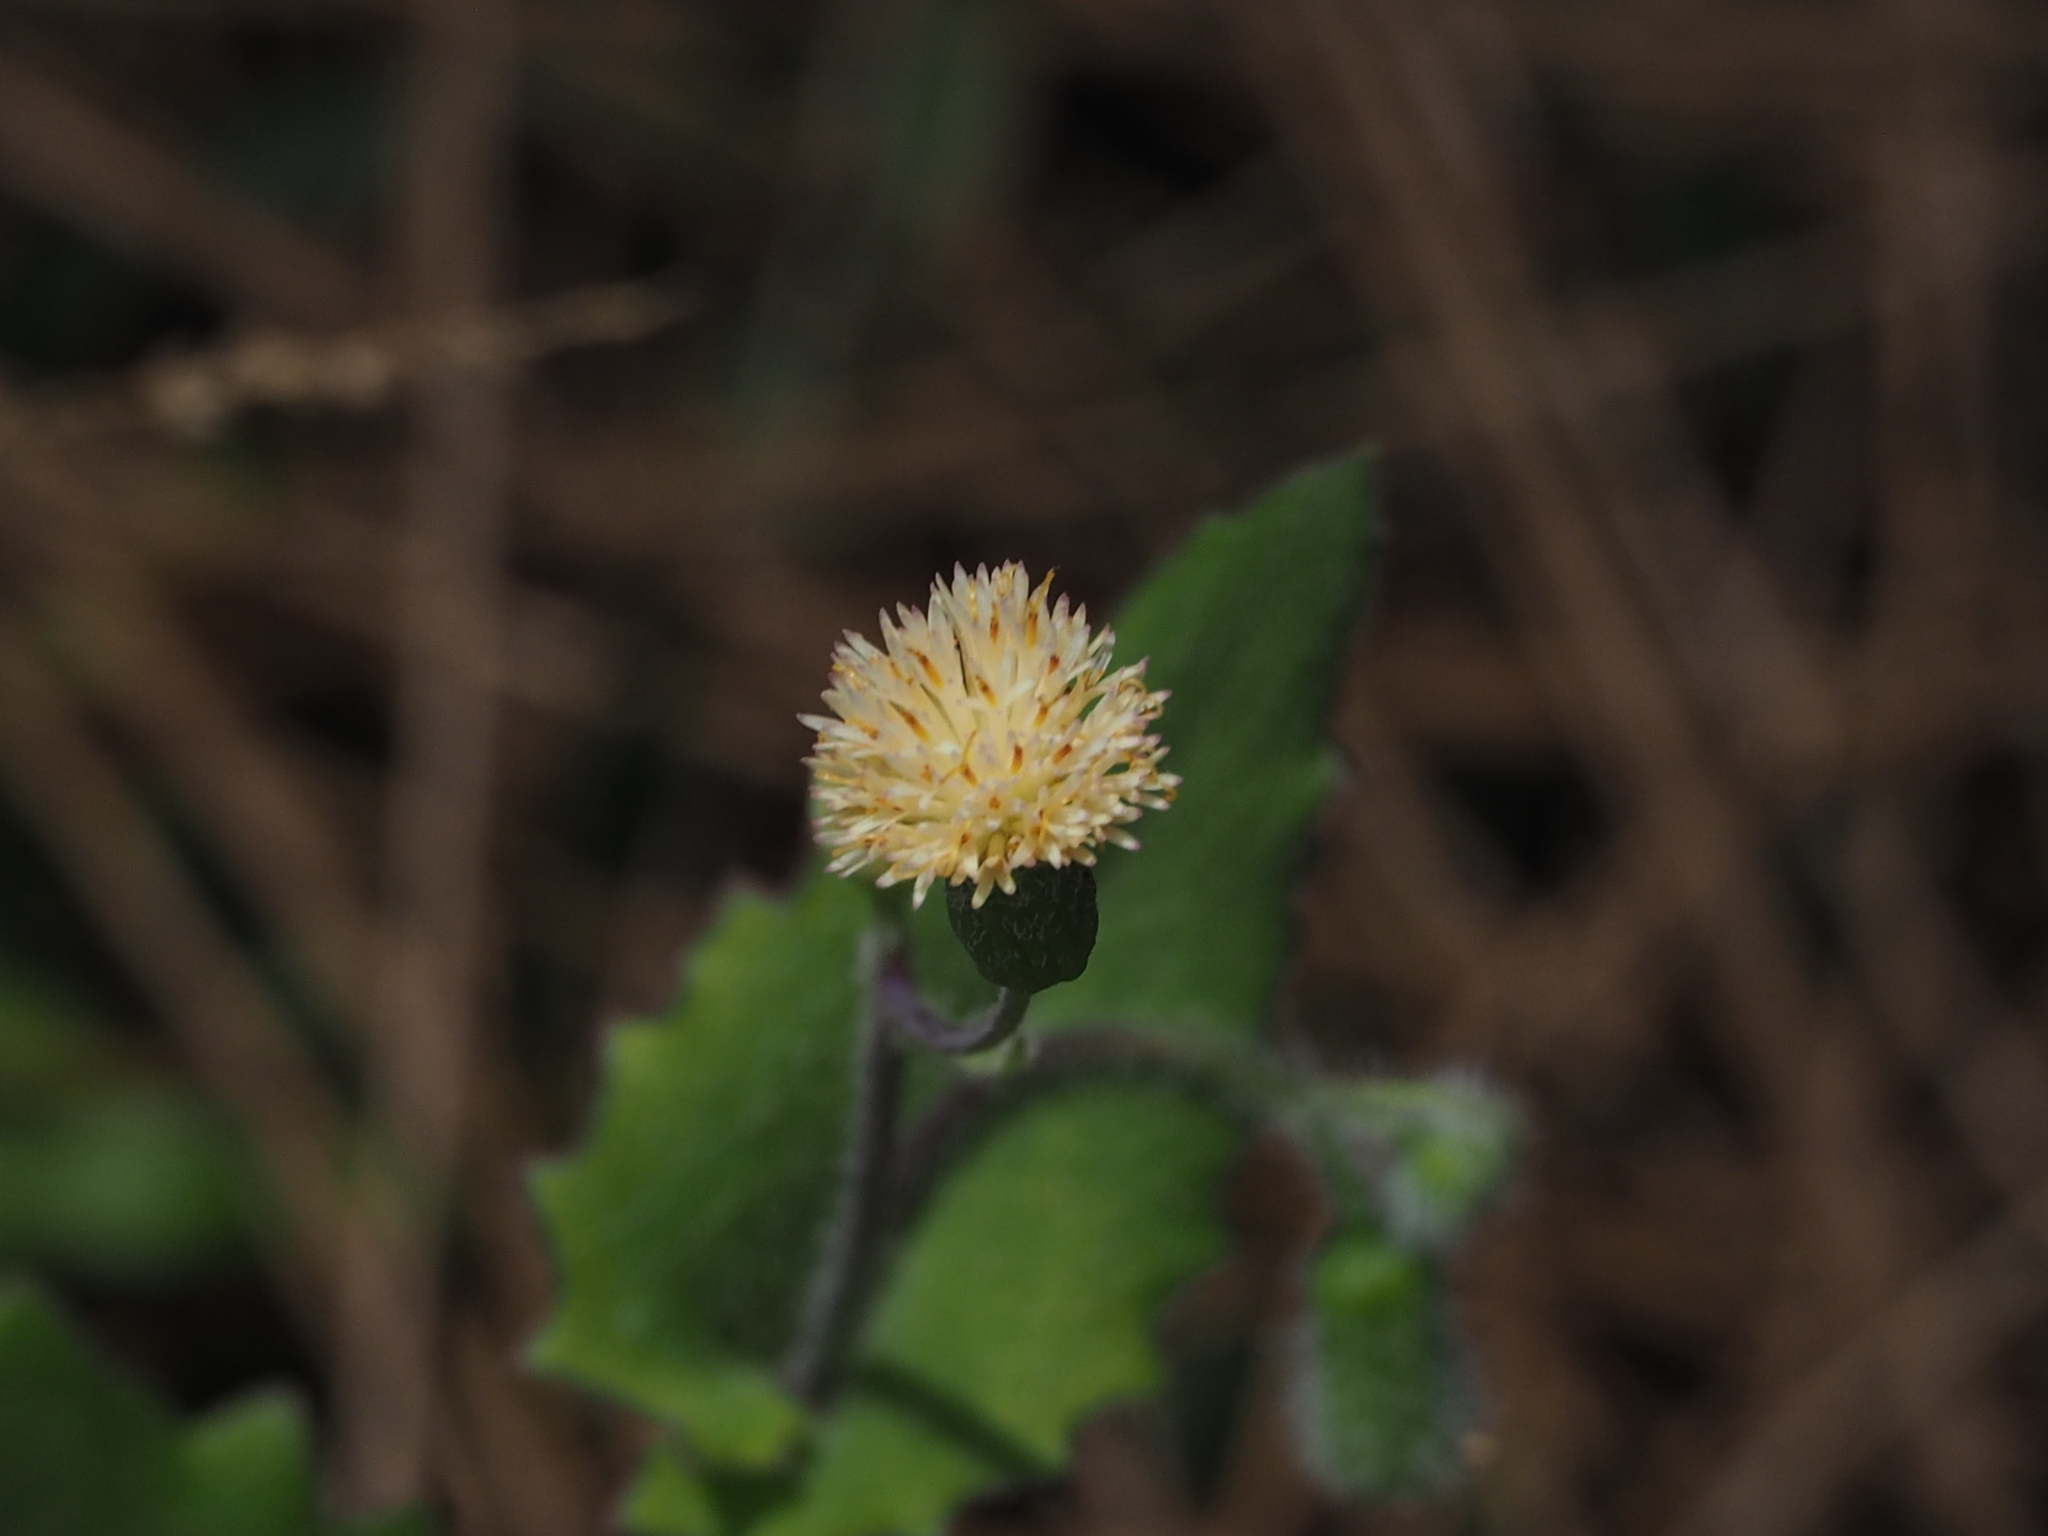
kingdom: Plantae
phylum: Tracheophyta
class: Magnoliopsida
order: Asterales
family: Asteraceae
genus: Emilia
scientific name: Emilia praetermissa
